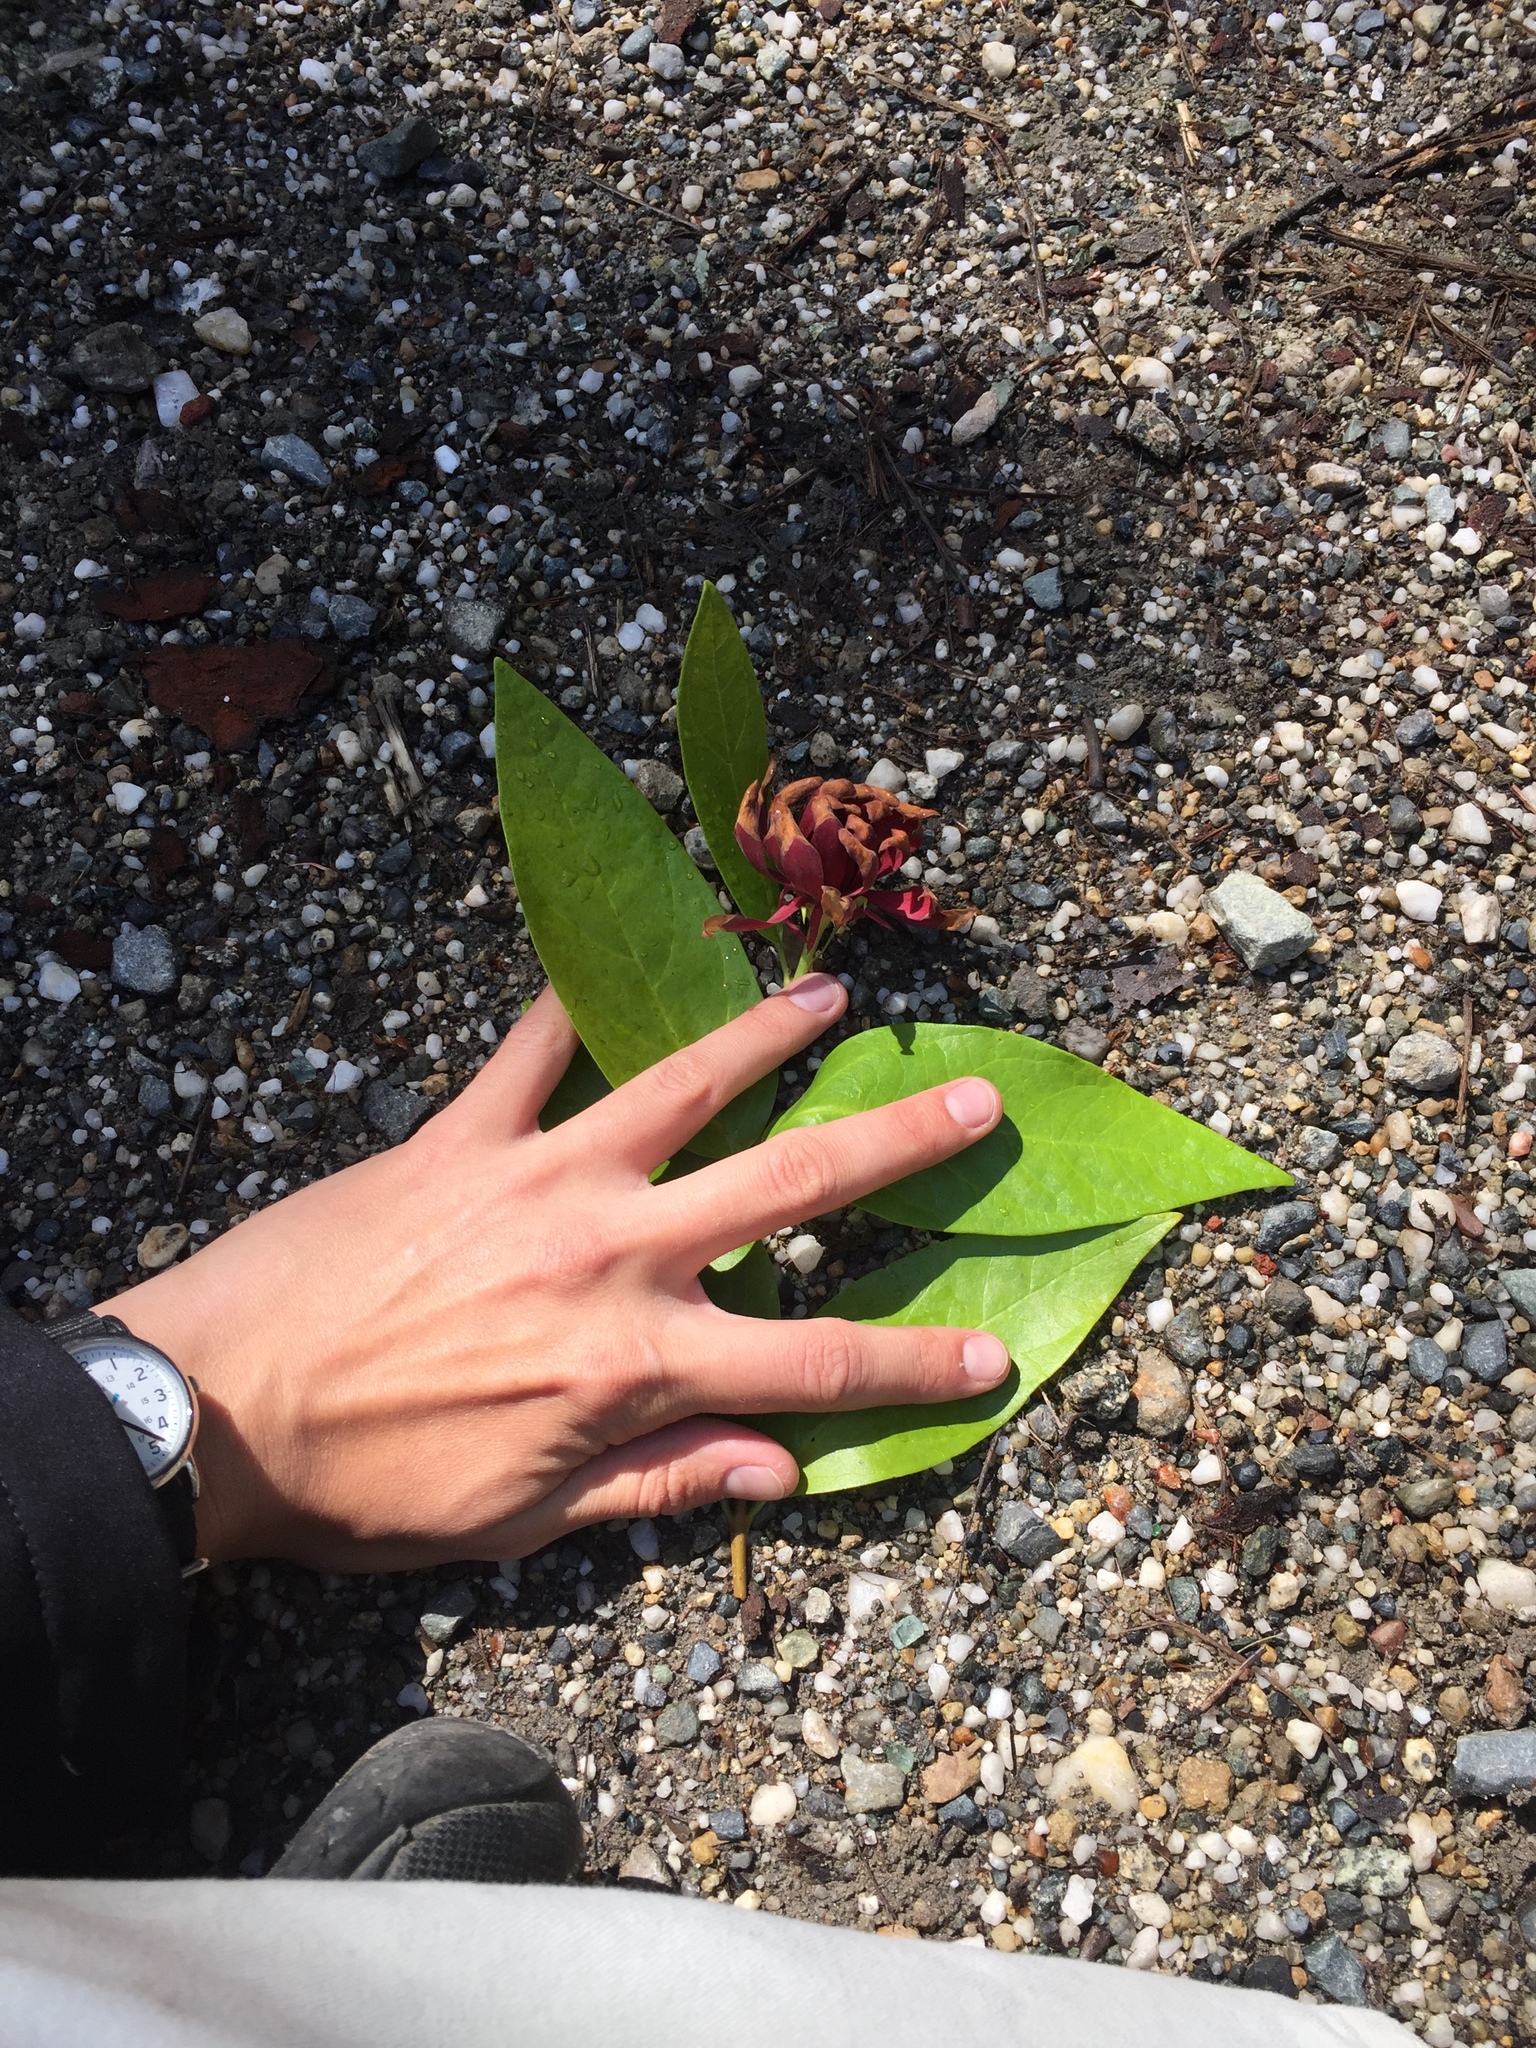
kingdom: Plantae
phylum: Tracheophyta
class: Magnoliopsida
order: Laurales
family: Calycanthaceae
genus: Calycanthus
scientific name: Calycanthus occidentalis
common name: California spicebush
